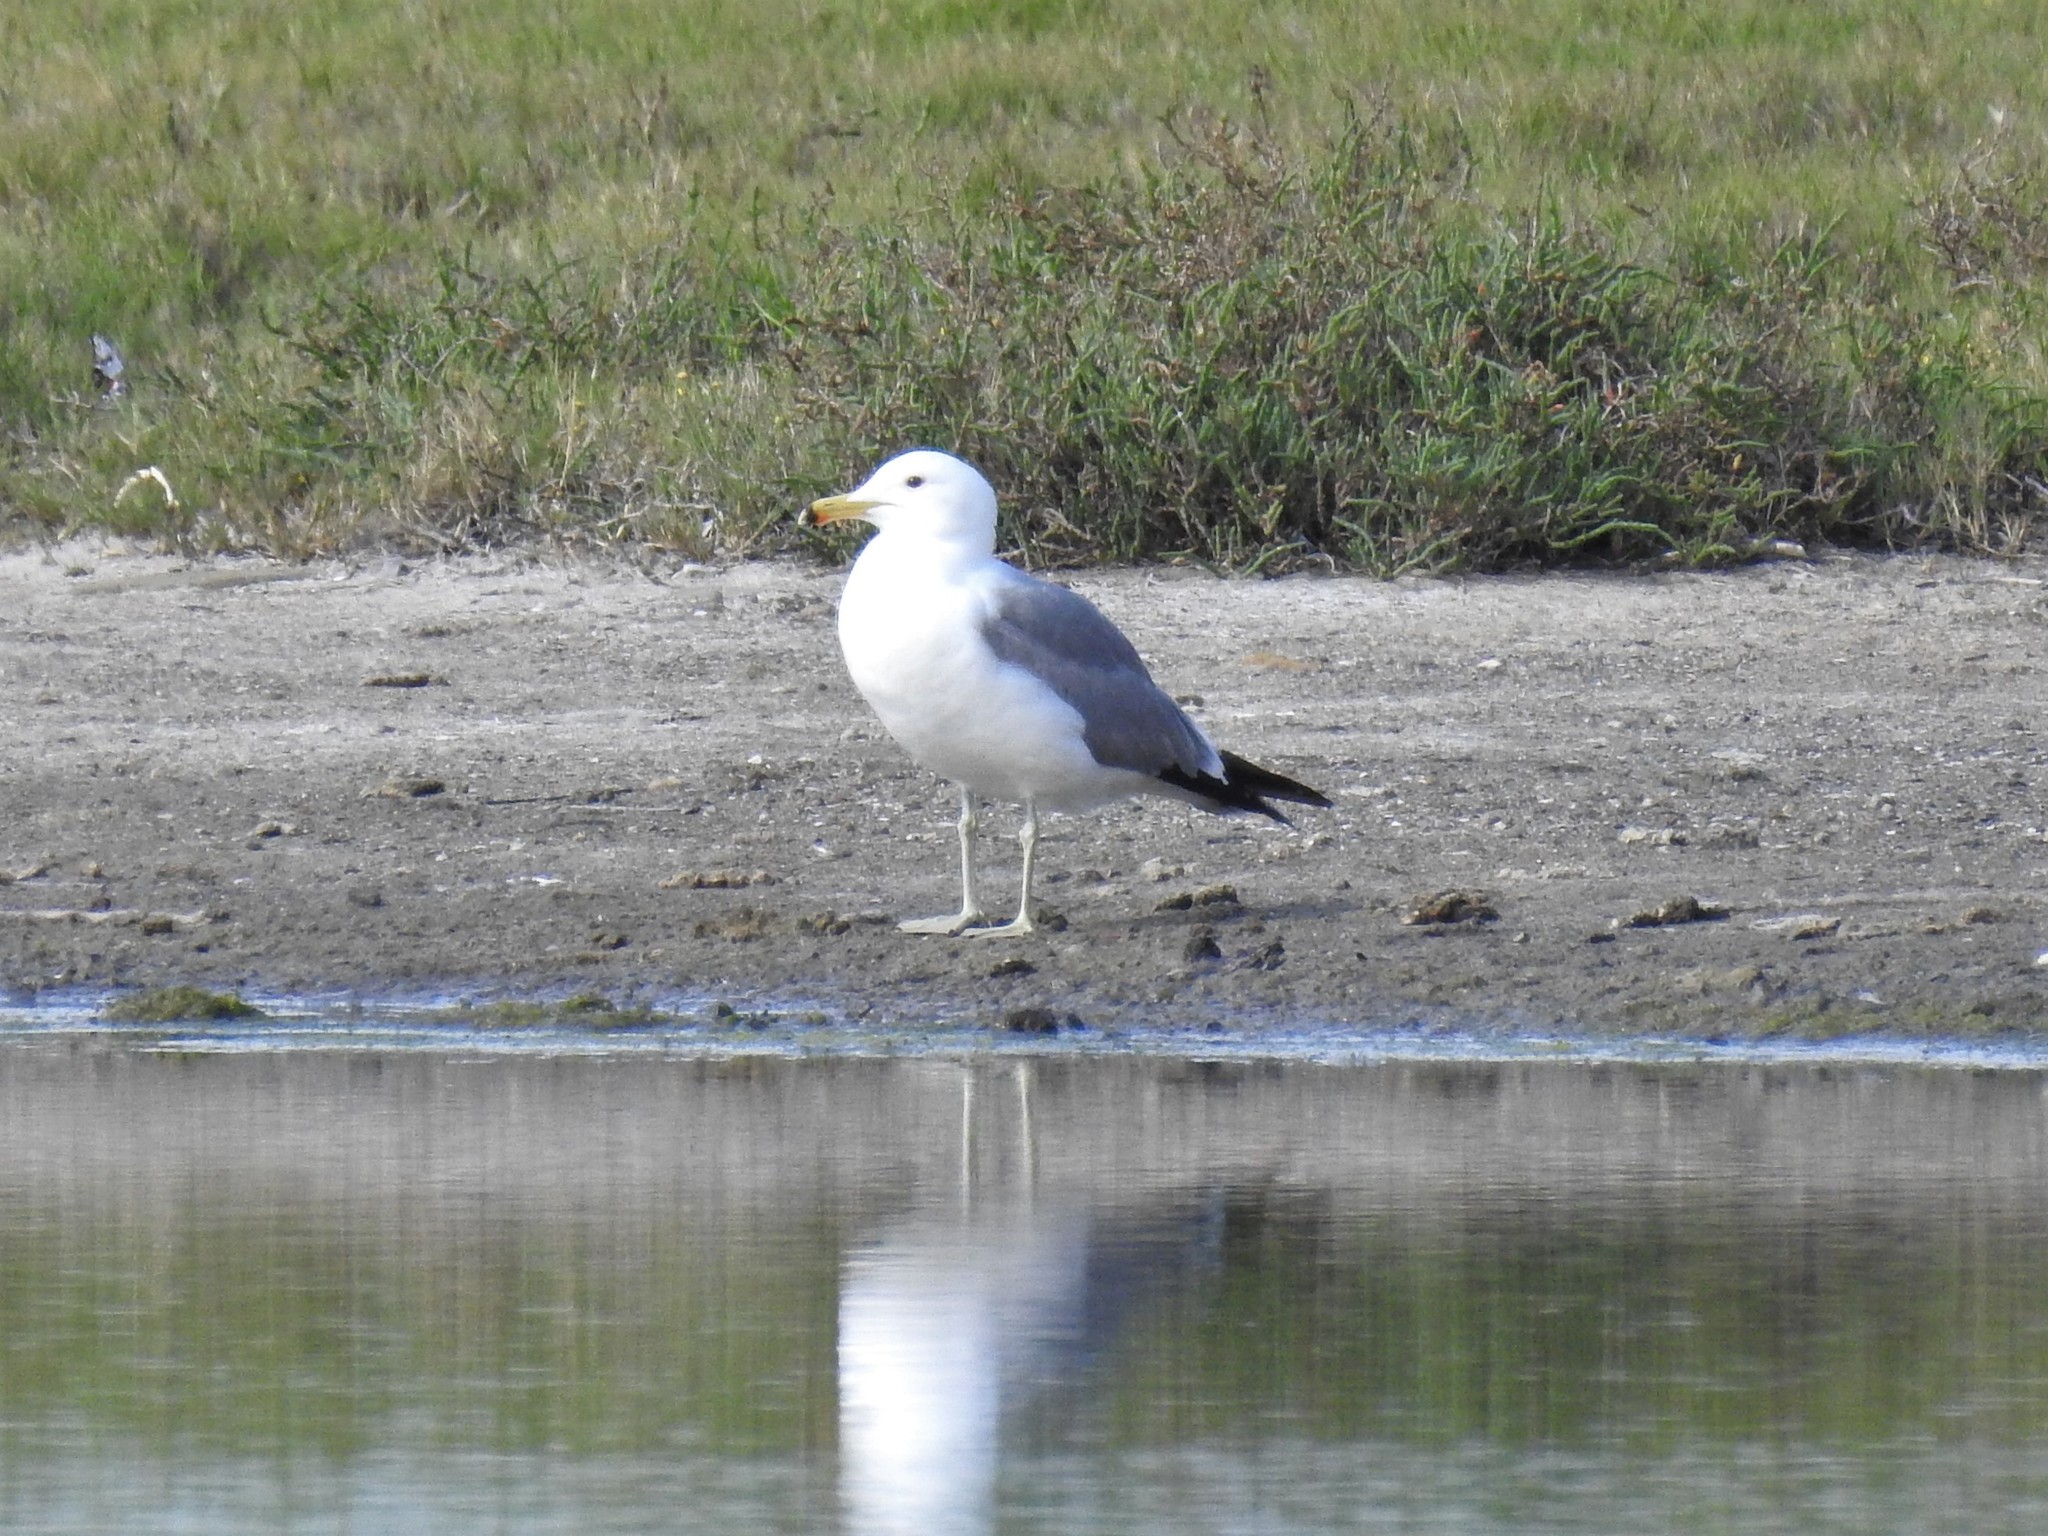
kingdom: Animalia
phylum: Chordata
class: Aves
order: Charadriiformes
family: Laridae
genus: Larus
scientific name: Larus californicus
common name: California gull
